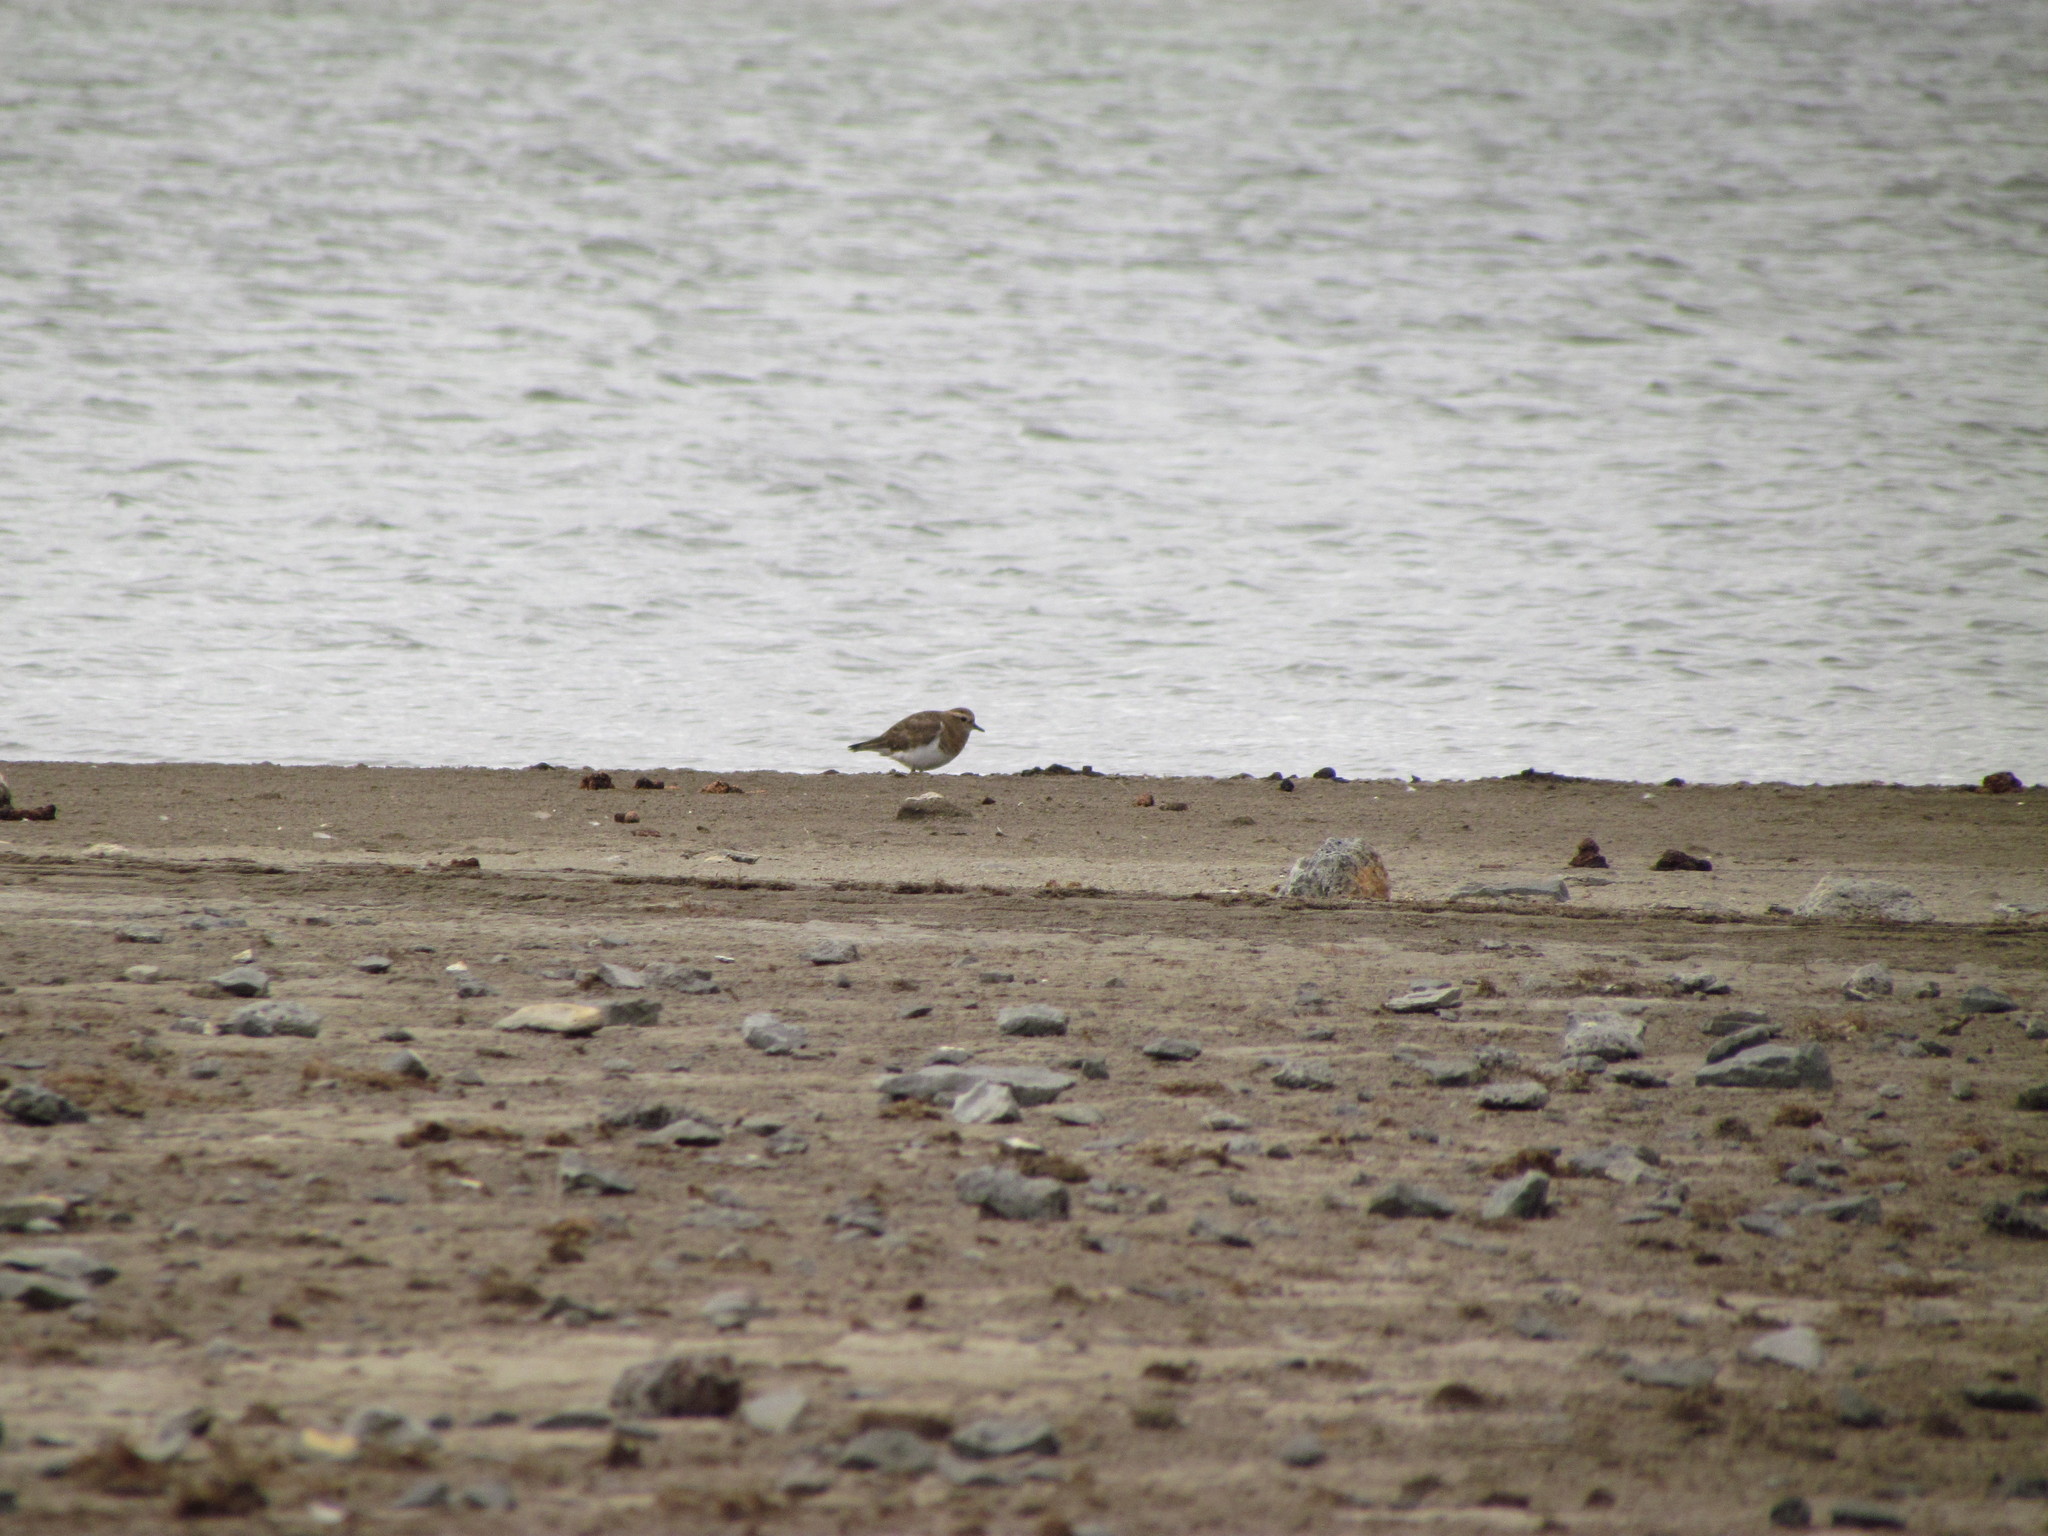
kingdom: Animalia
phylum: Chordata
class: Aves
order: Charadriiformes
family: Charadriidae
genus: Charadrius
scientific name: Charadrius modestus
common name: Rufous-chested plover
